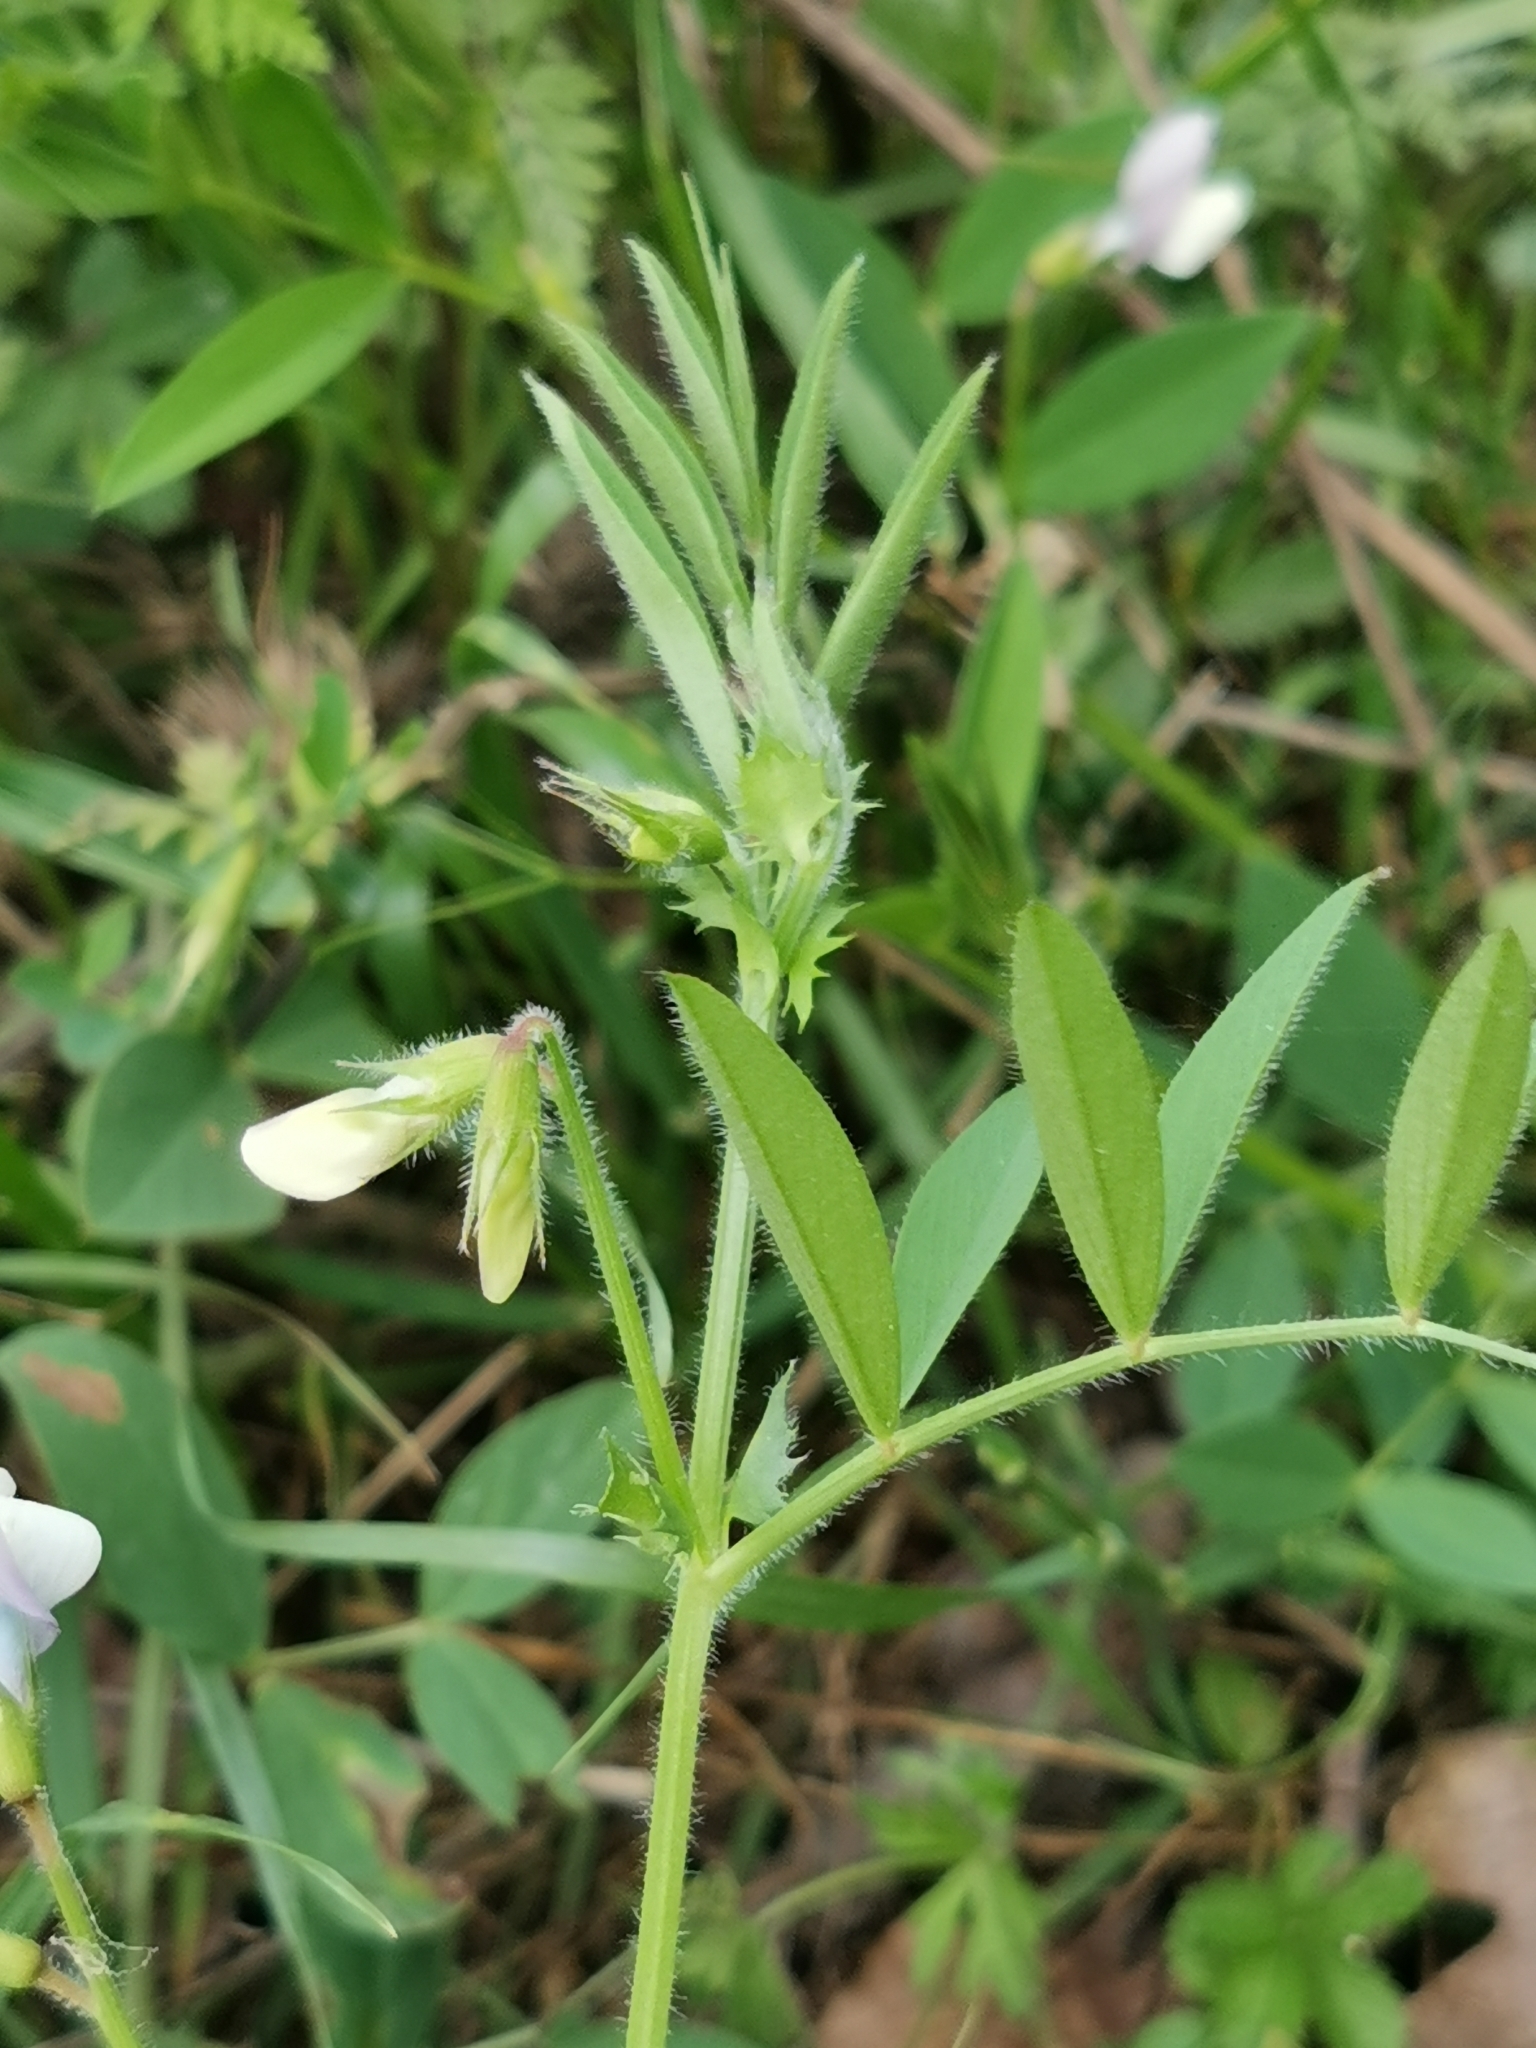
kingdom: Plantae
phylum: Tracheophyta
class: Magnoliopsida
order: Fabales
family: Fabaceae
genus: Vicia
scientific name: Vicia bithynica
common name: Bithynian vetch
